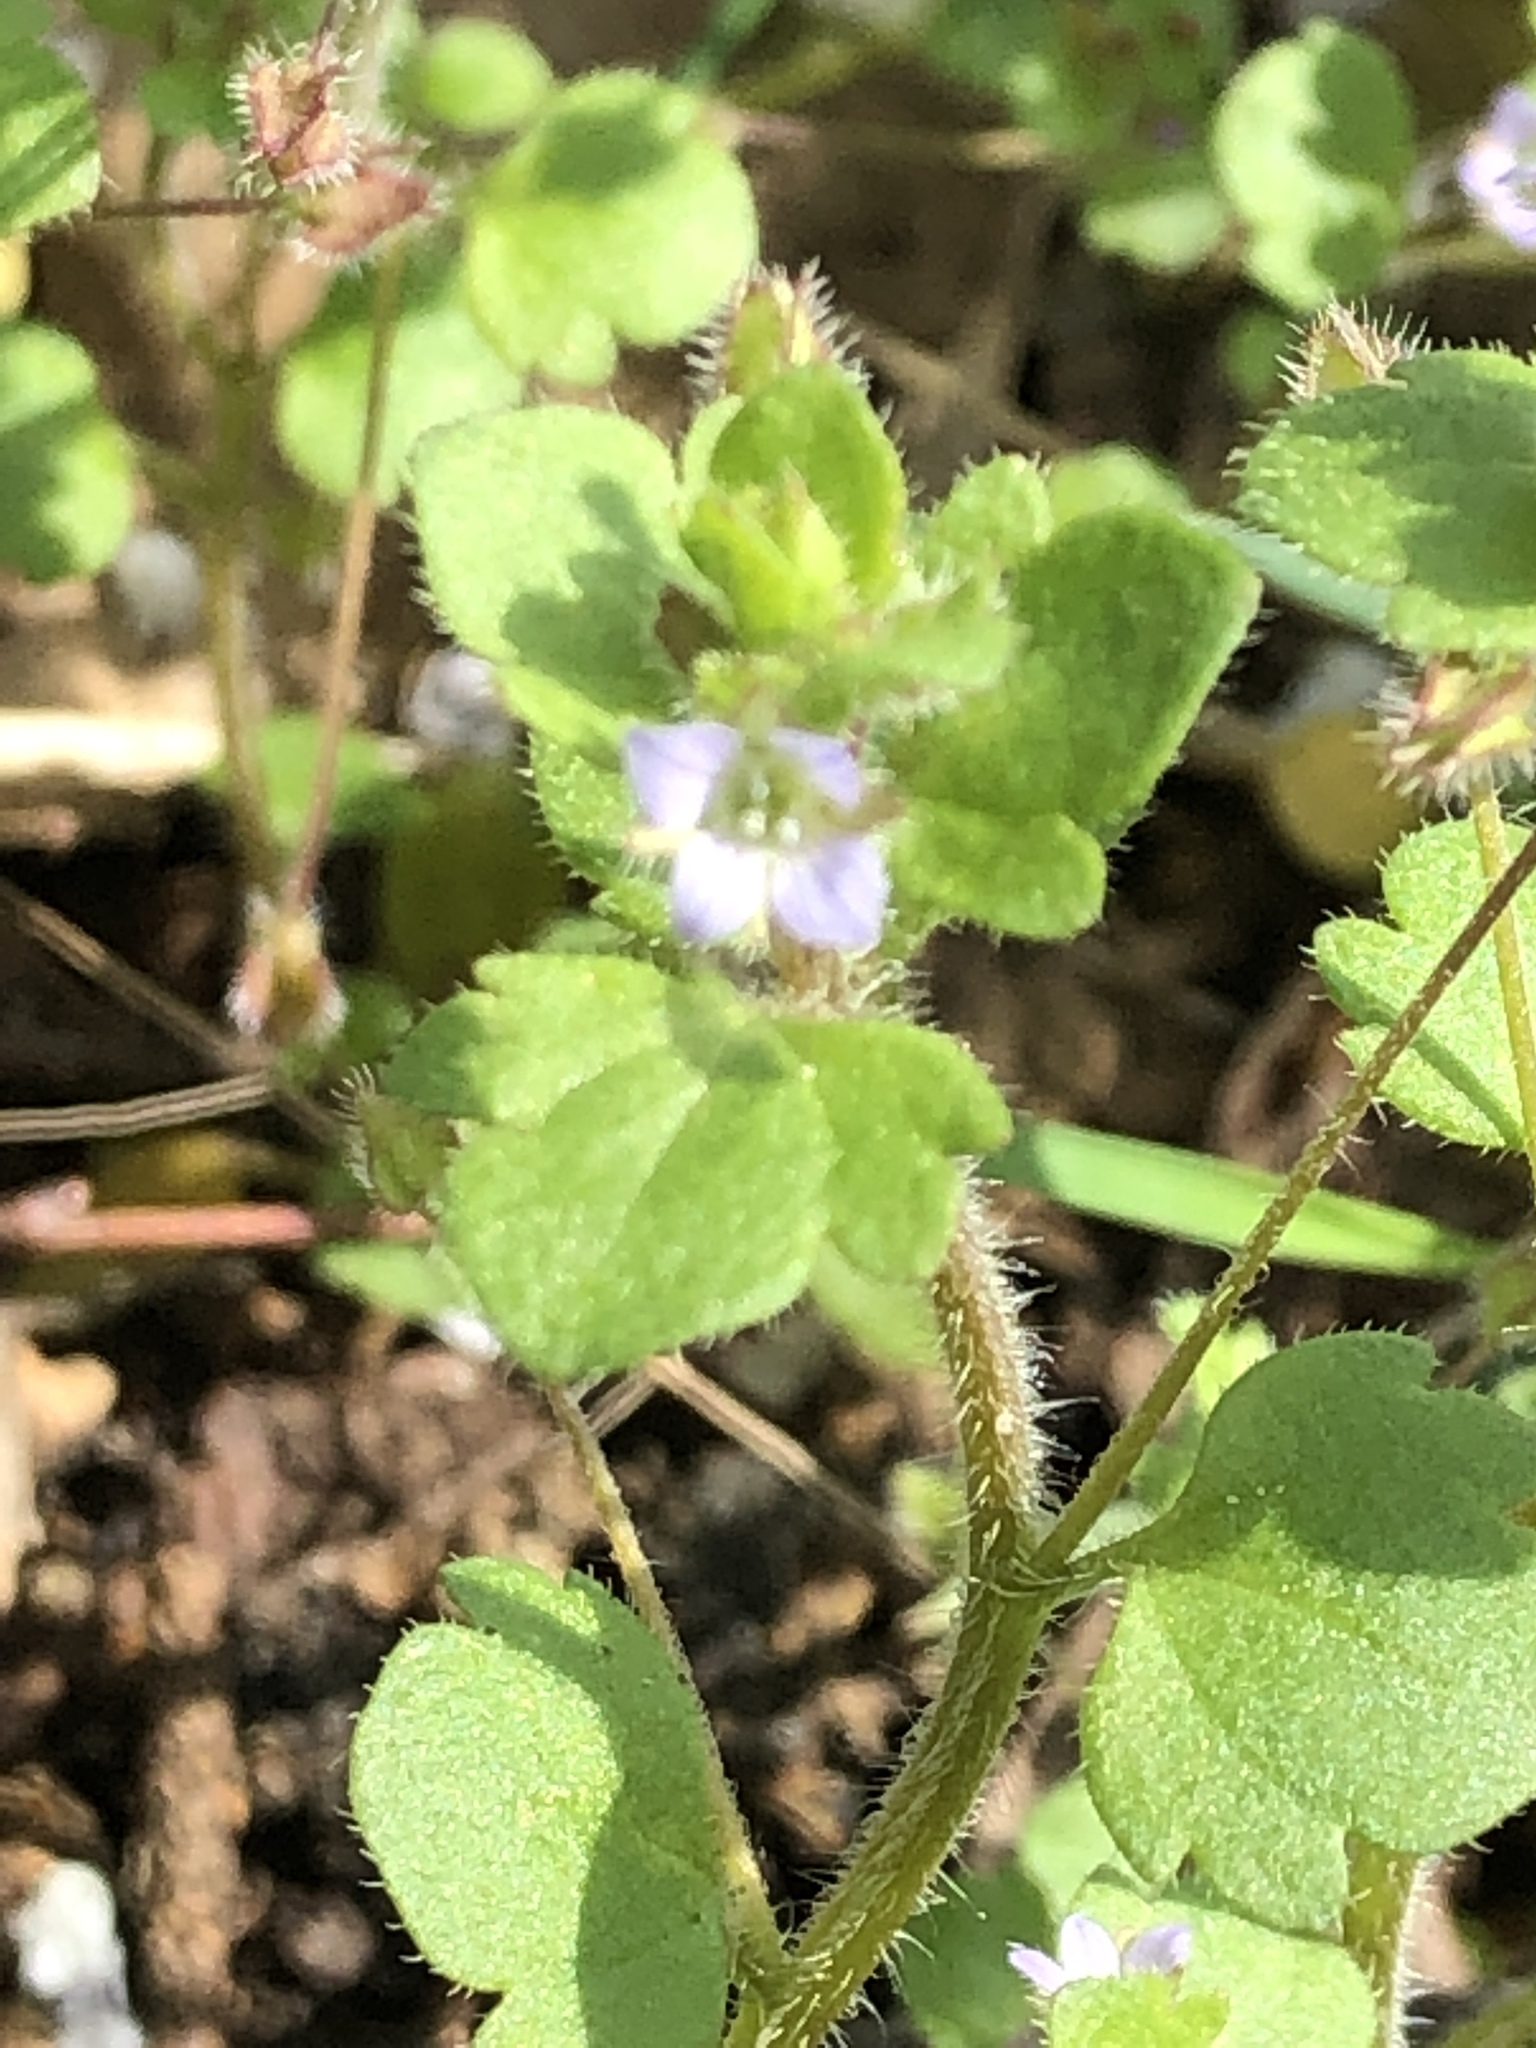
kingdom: Plantae
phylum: Tracheophyta
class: Magnoliopsida
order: Lamiales
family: Plantaginaceae
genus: Veronica
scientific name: Veronica sublobata
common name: False ivy-leaved speedwell
